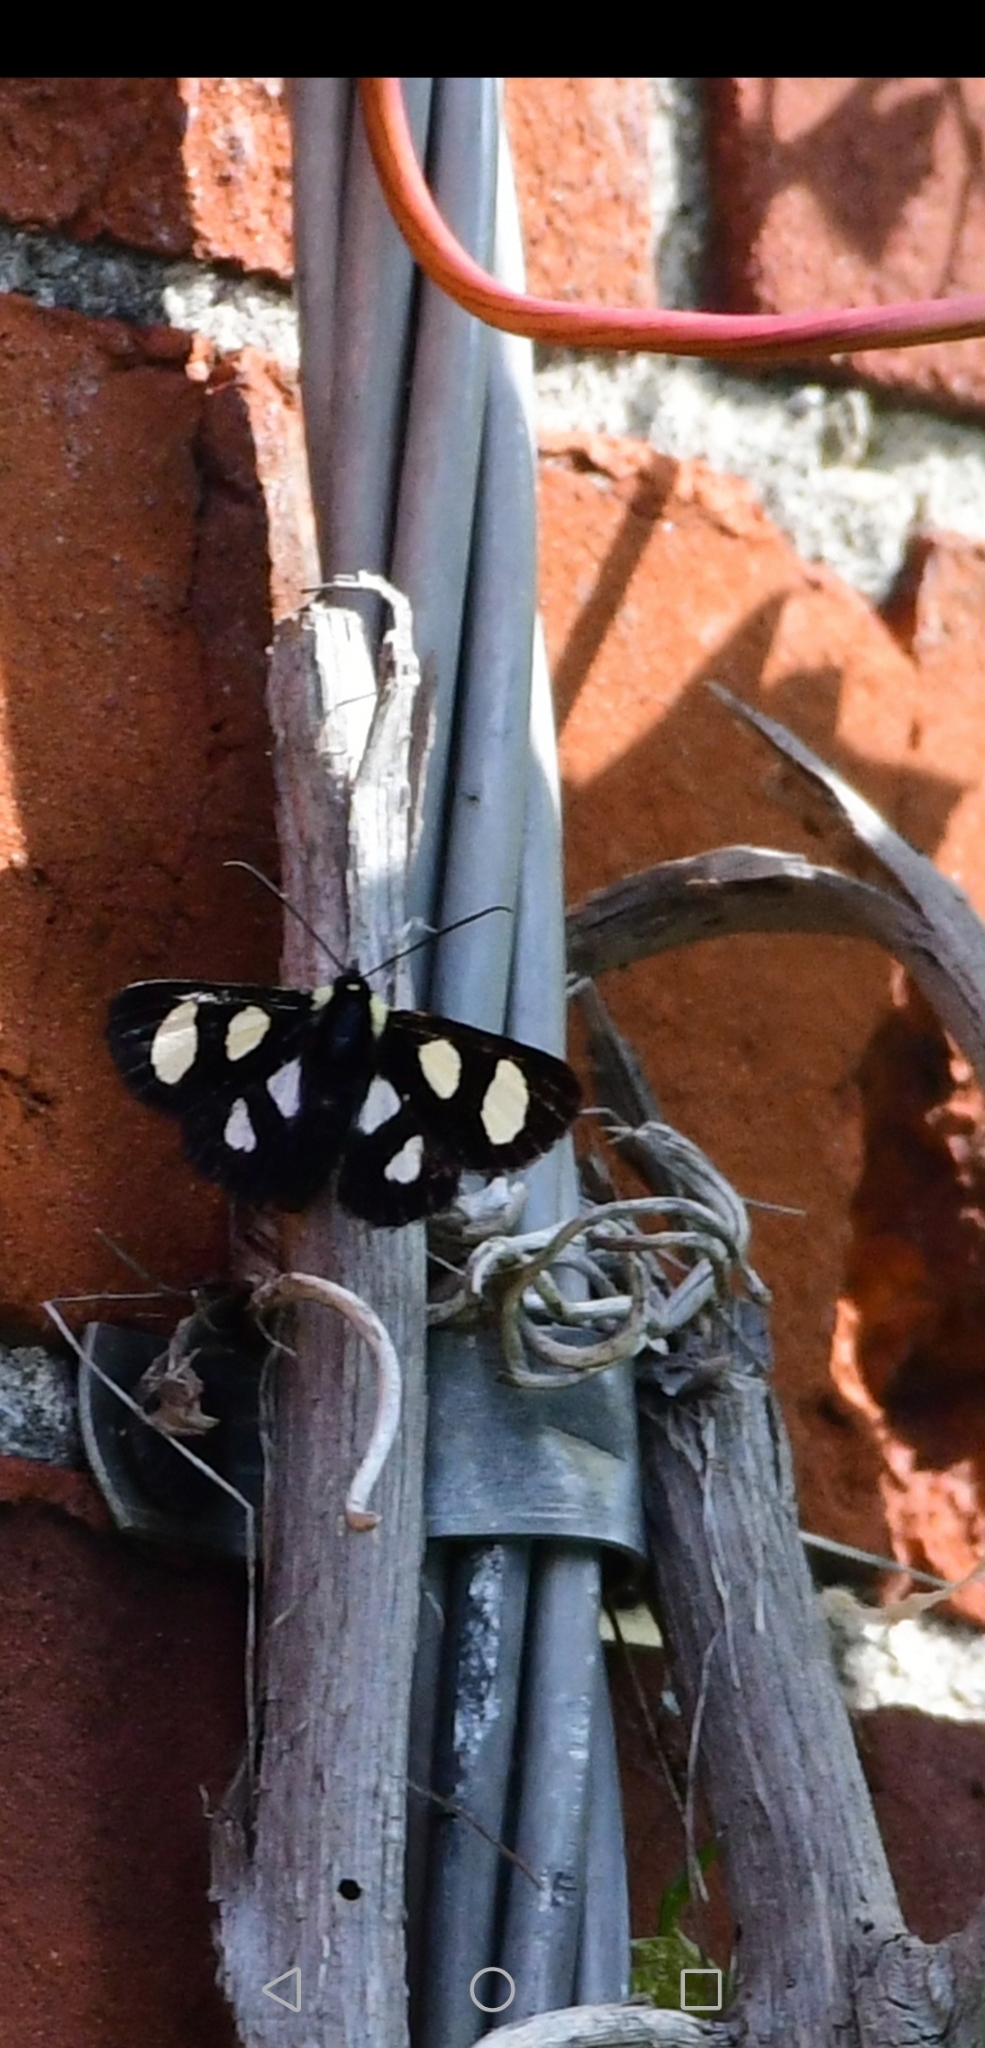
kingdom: Animalia
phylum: Arthropoda
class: Insecta
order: Lepidoptera
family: Noctuidae
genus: Alypia
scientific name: Alypia octomaculata
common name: Eight-spotted forester
